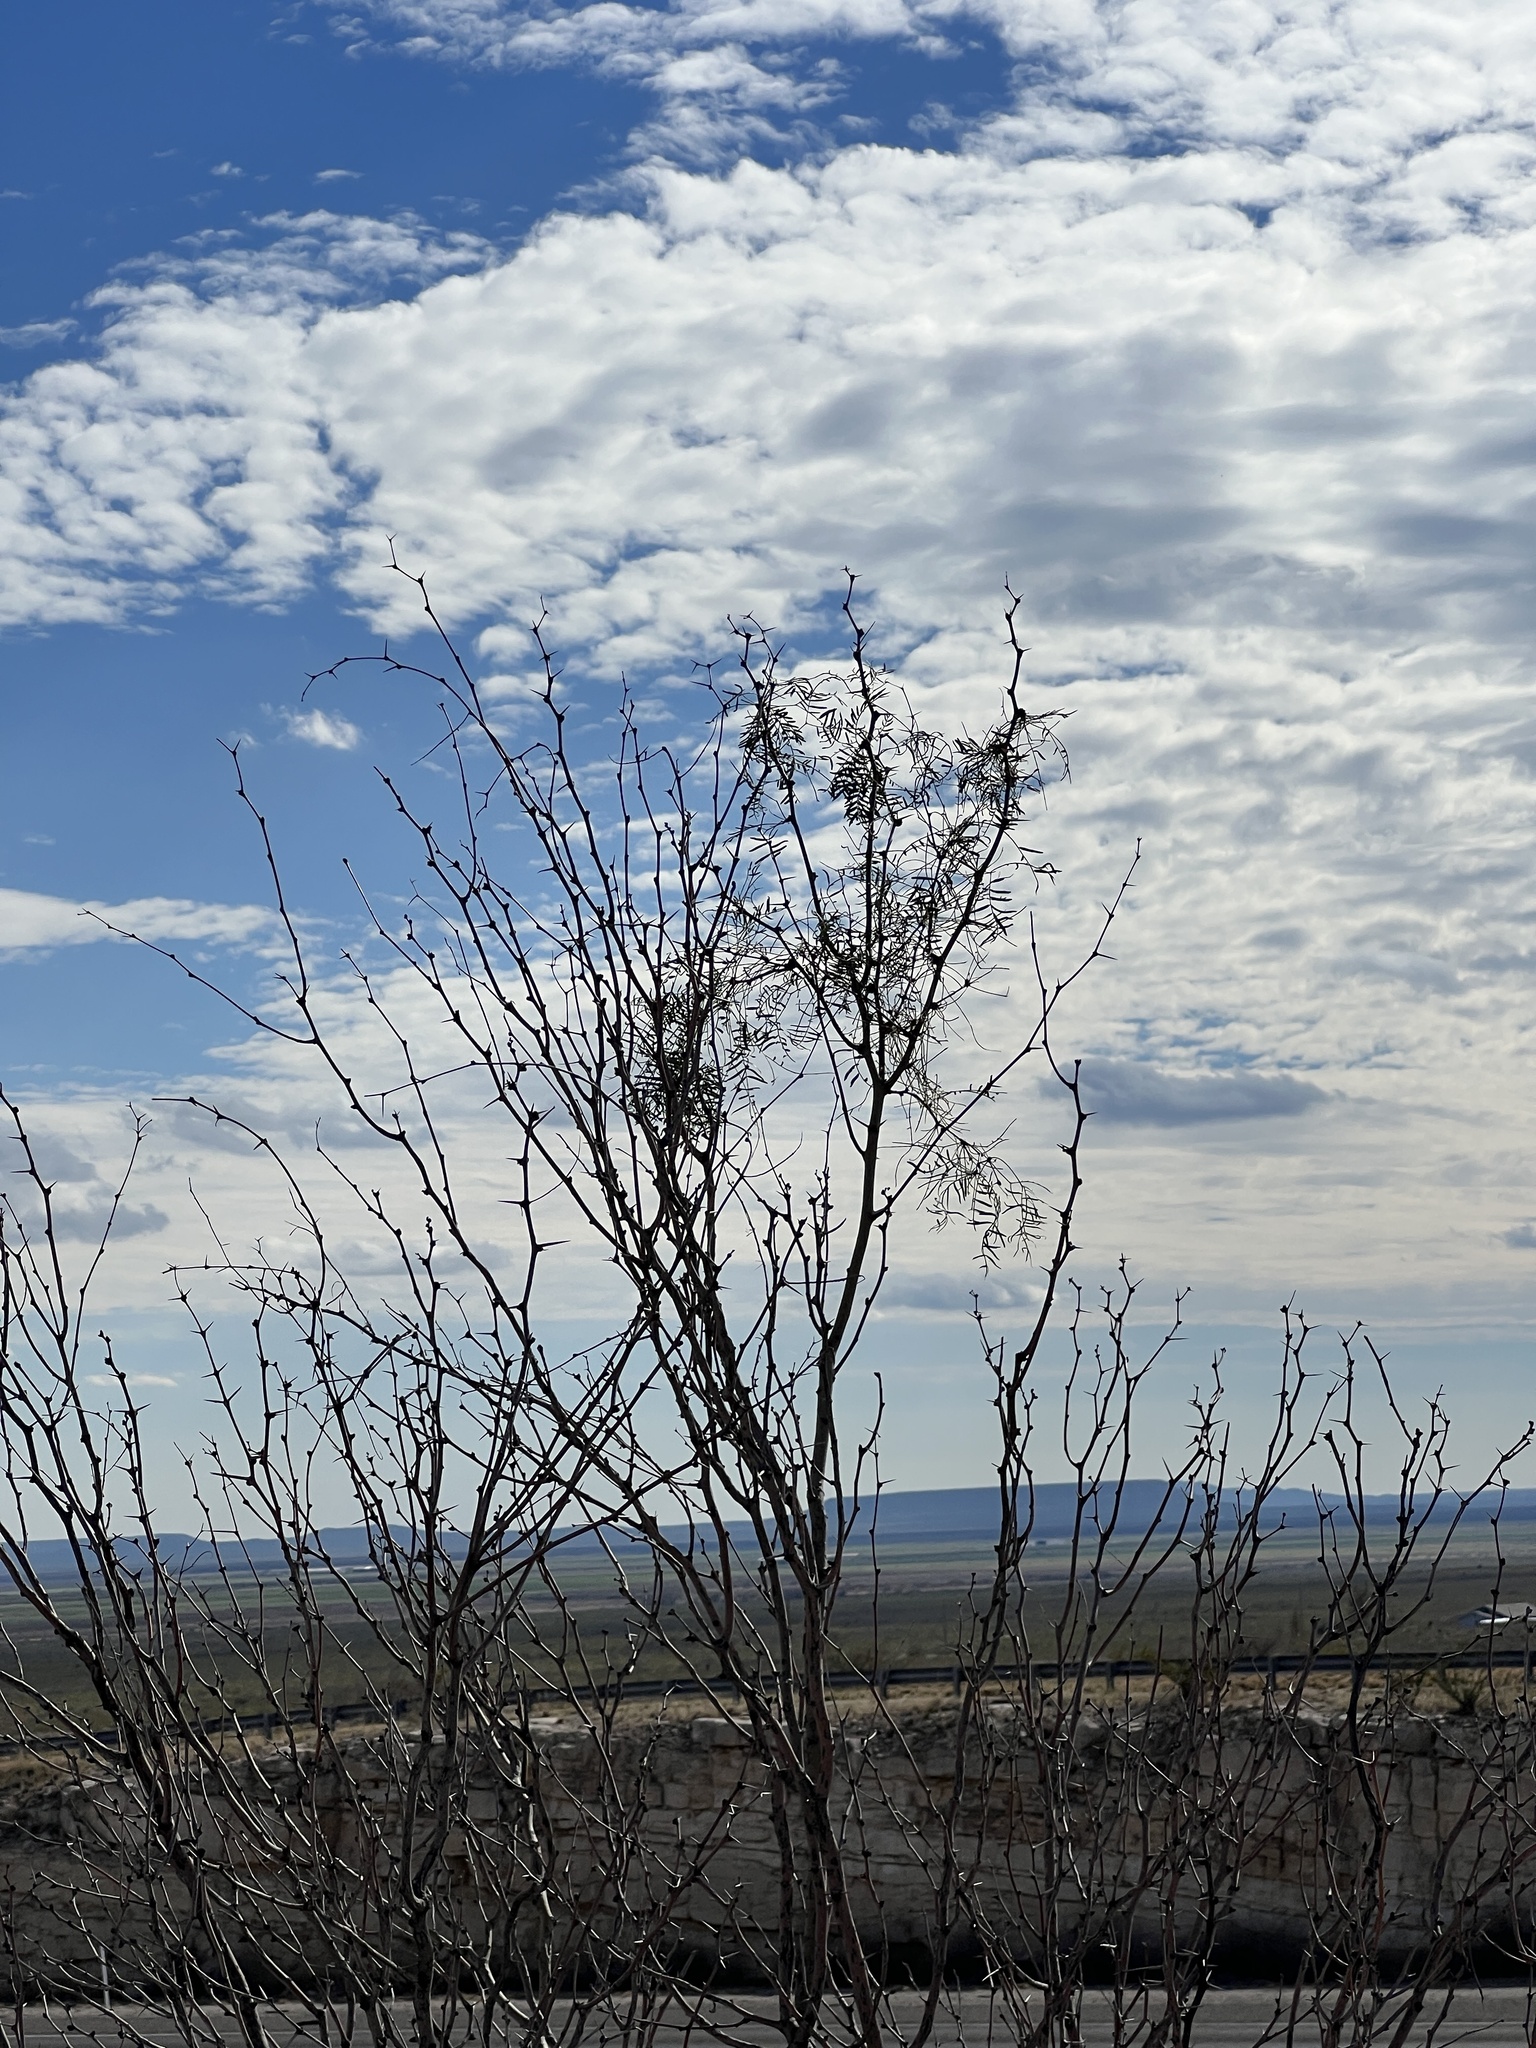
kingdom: Plantae
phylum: Tracheophyta
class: Magnoliopsida
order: Fabales
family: Fabaceae
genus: Prosopis
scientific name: Prosopis glandulosa
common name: Honey mesquite
